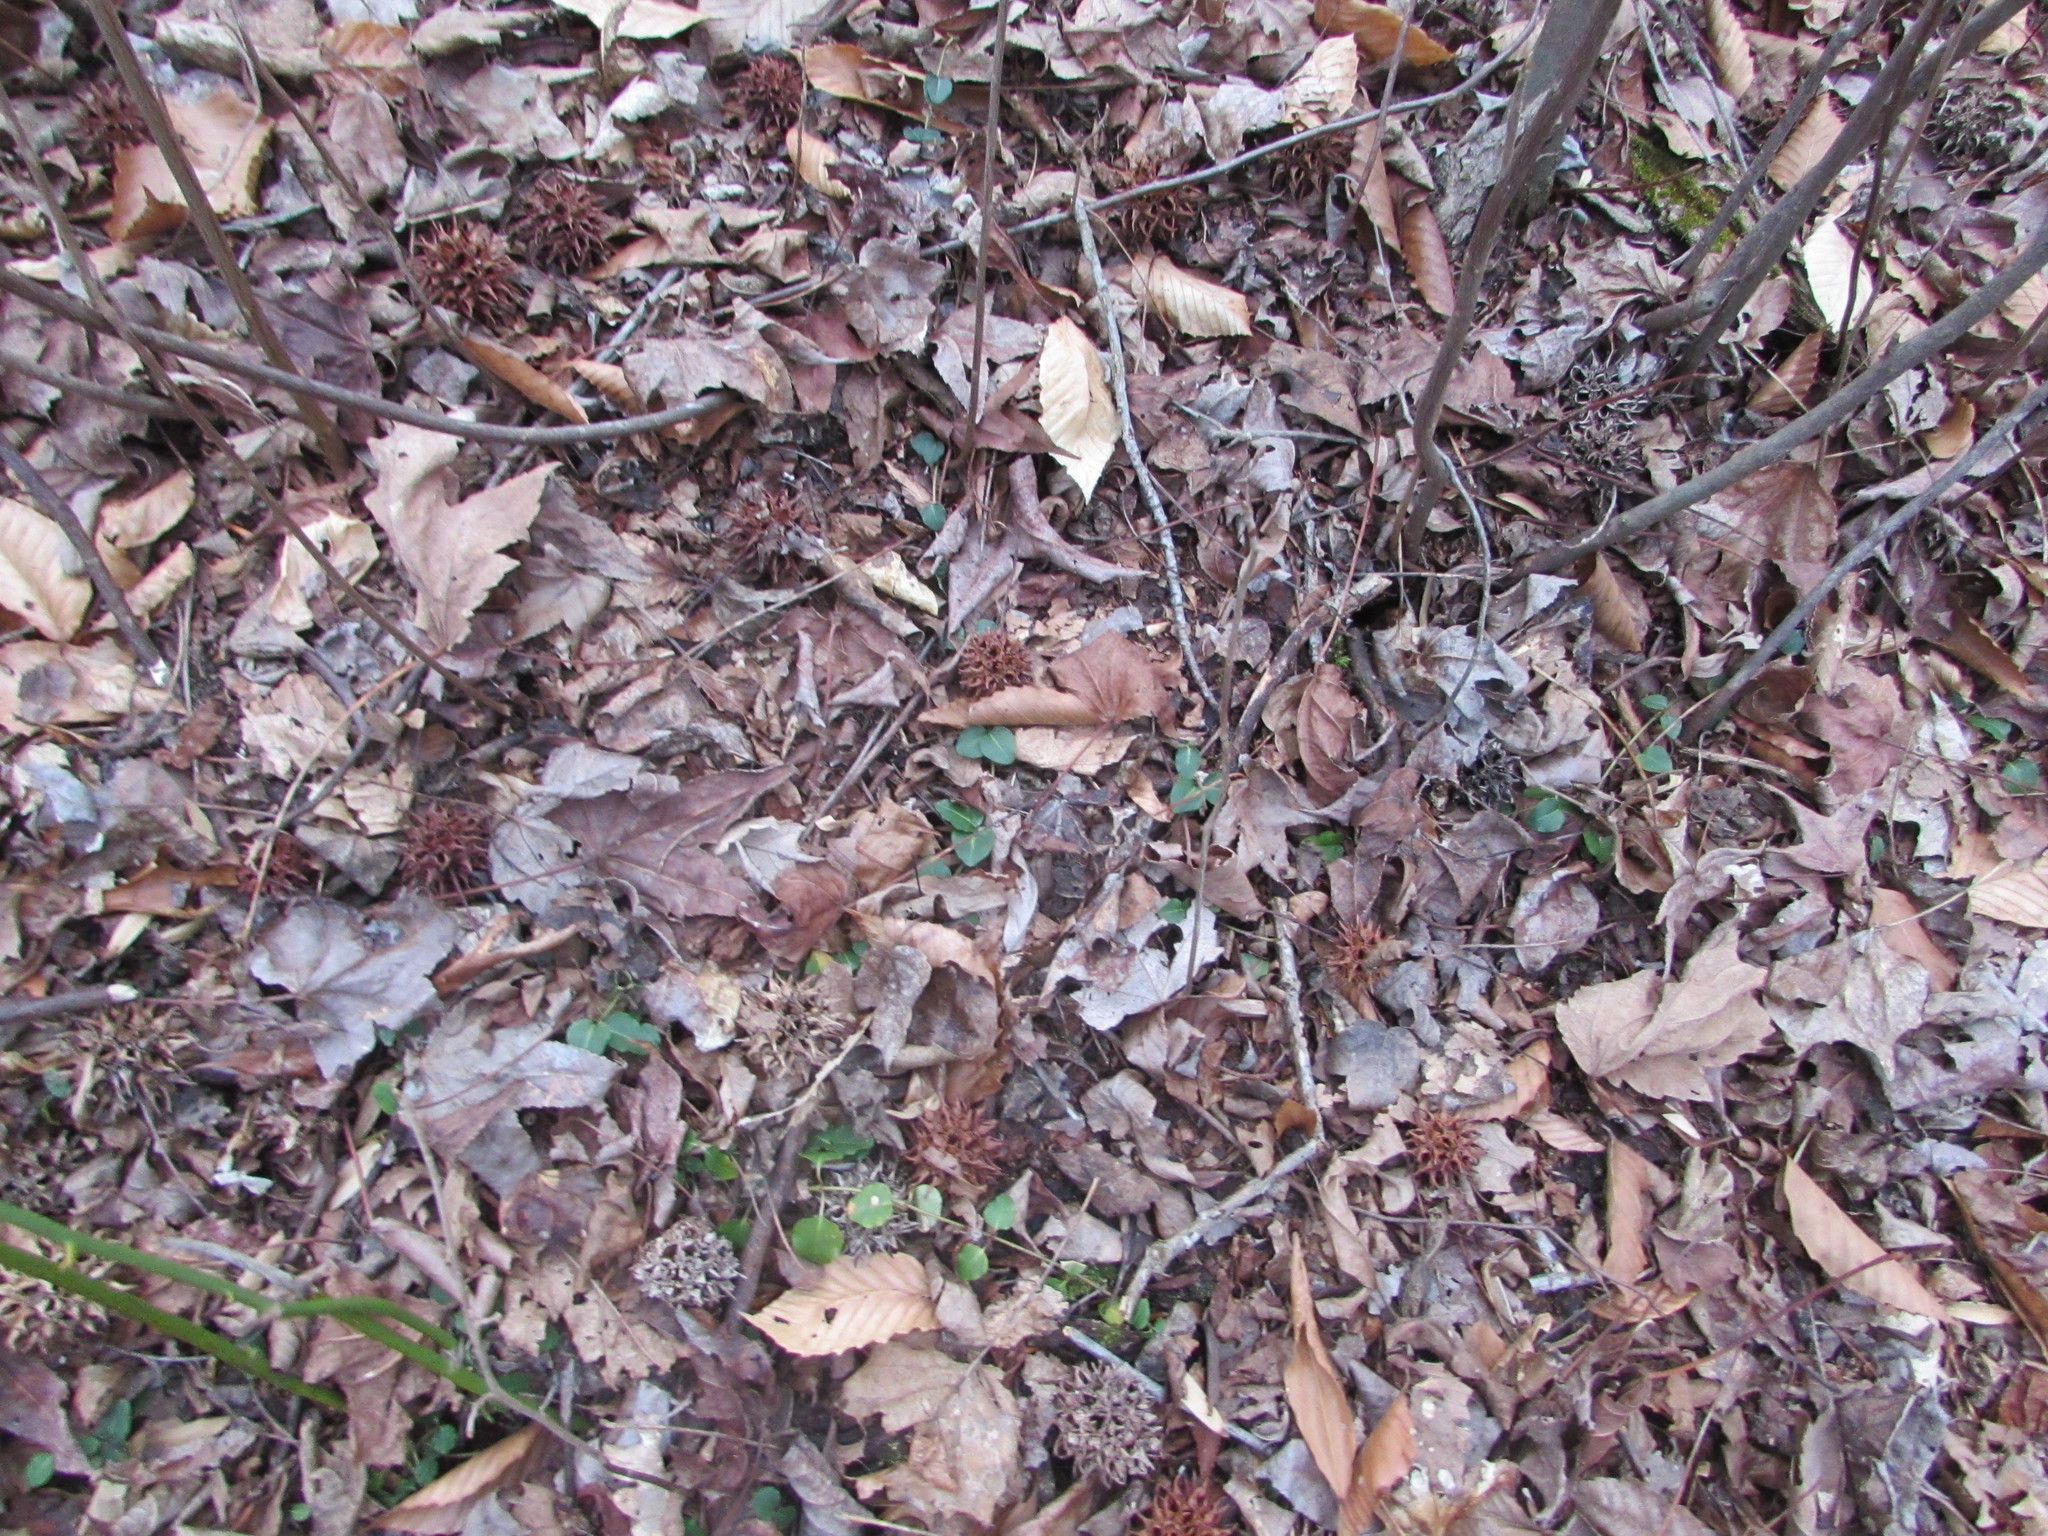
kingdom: Plantae
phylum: Tracheophyta
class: Magnoliopsida
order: Gentianales
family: Rubiaceae
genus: Mitchella
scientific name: Mitchella repens
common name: Partridge-berry
